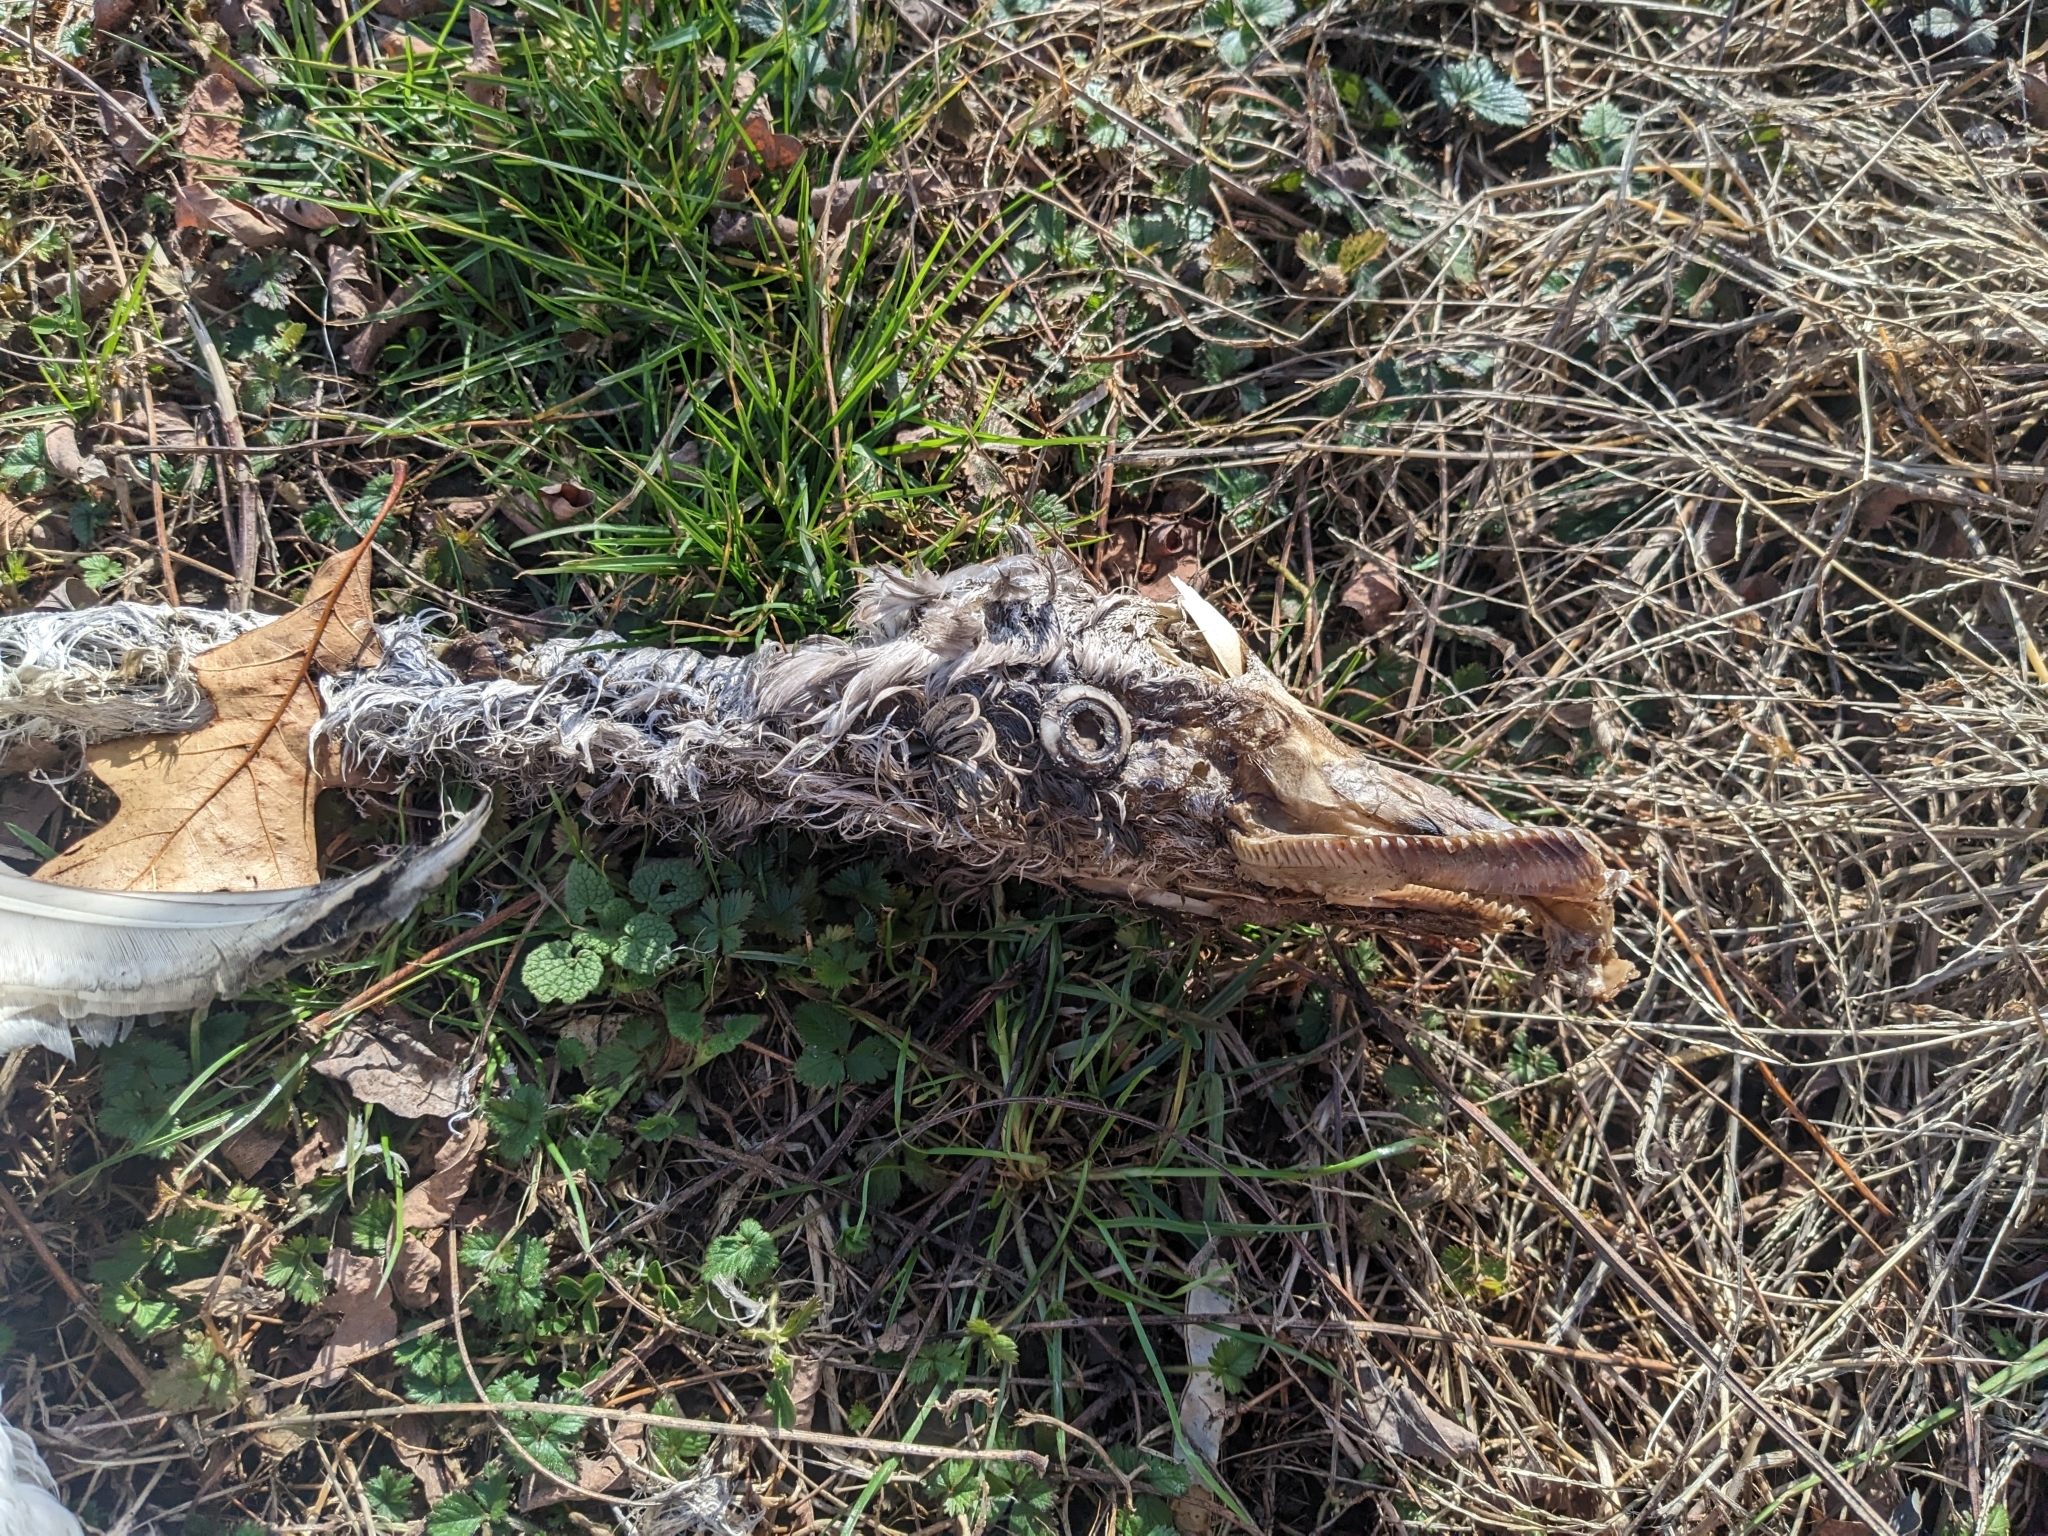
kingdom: Animalia
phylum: Chordata
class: Aves
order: Anseriformes
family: Anatidae
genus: Cygnus
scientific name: Cygnus columbianus
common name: Tundra swan
